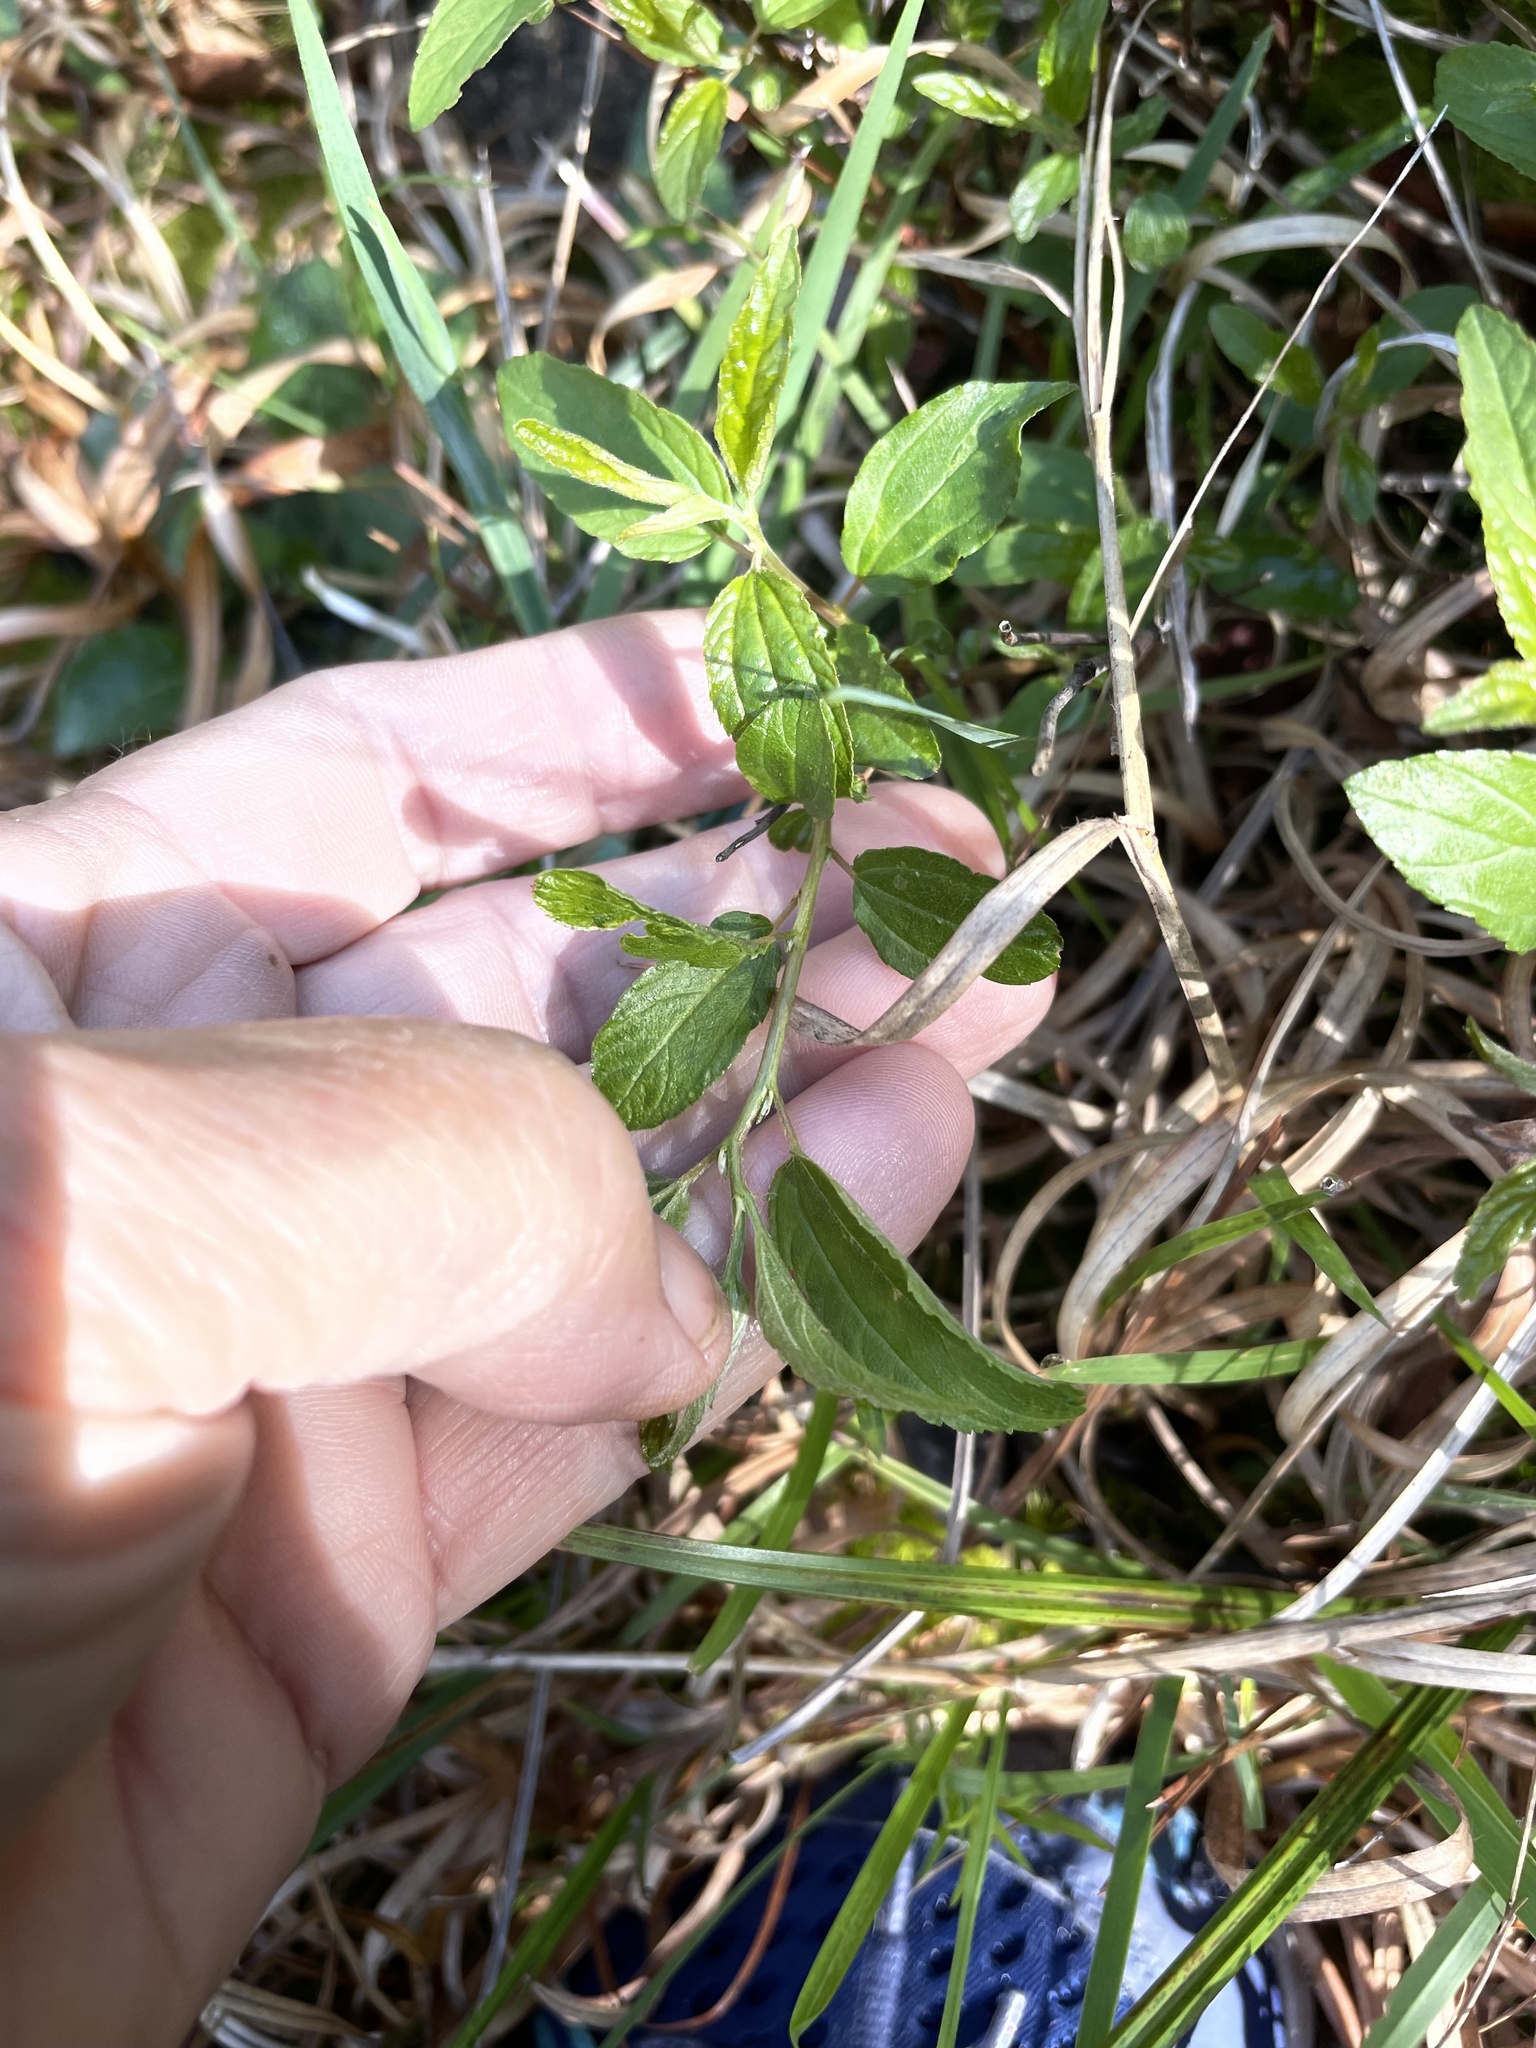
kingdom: Plantae
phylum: Tracheophyta
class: Magnoliopsida
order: Rosales
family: Rhamnaceae
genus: Ceanothus
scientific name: Ceanothus americanus
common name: Redroot
